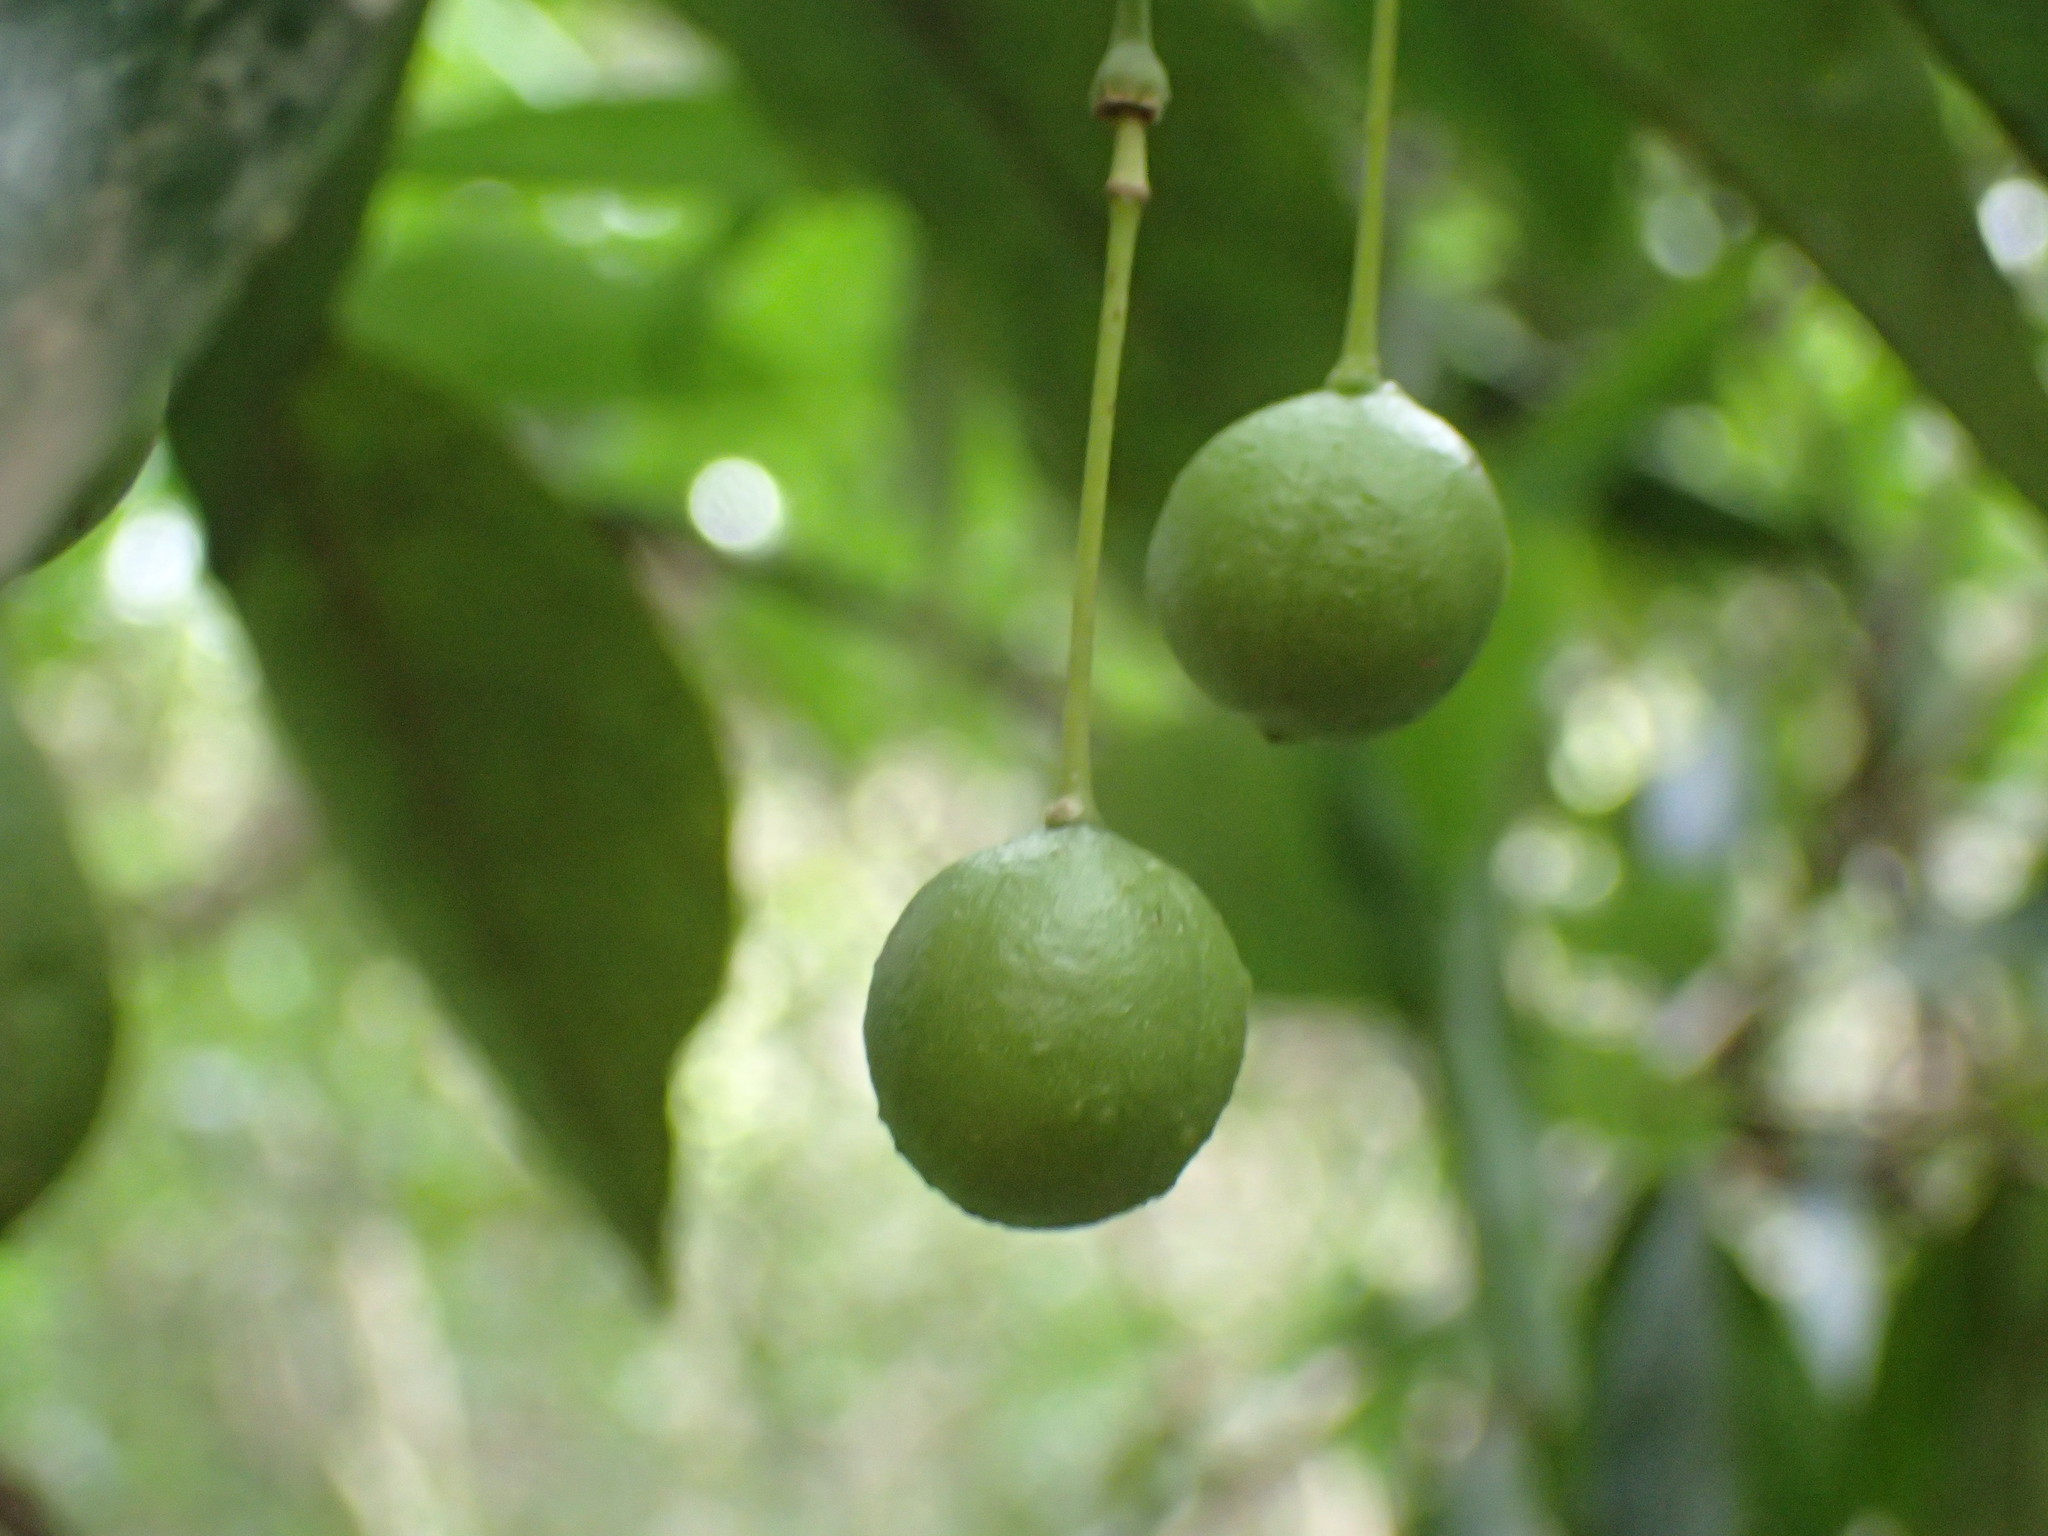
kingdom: Plantae
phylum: Tracheophyta
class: Magnoliopsida
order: Brassicales
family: Capparaceae
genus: Maerua
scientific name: Maerua racemulosa
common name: Forest bush-cherry
